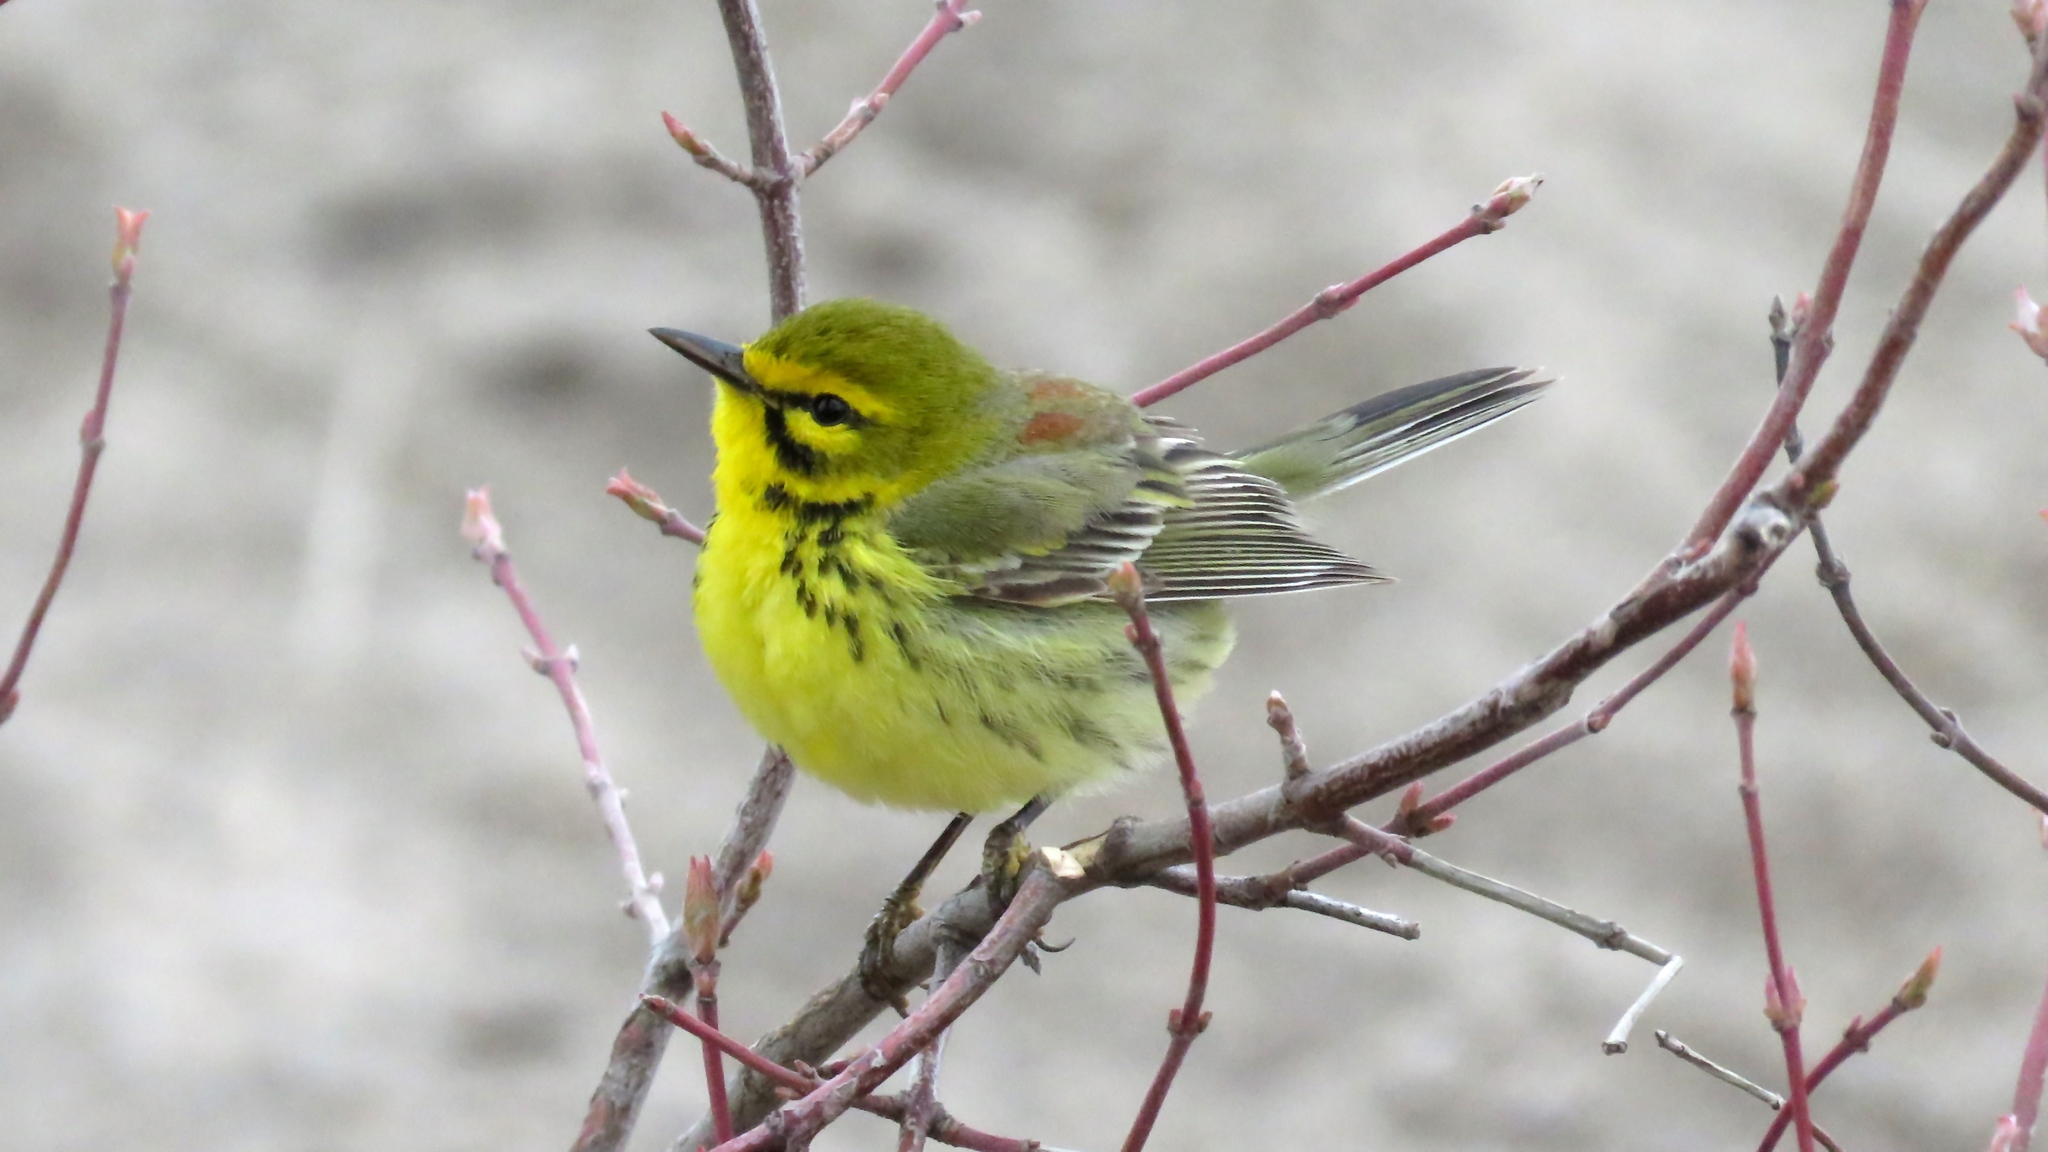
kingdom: Animalia
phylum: Chordata
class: Aves
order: Passeriformes
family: Parulidae
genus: Setophaga
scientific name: Setophaga discolor
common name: Prairie warbler
